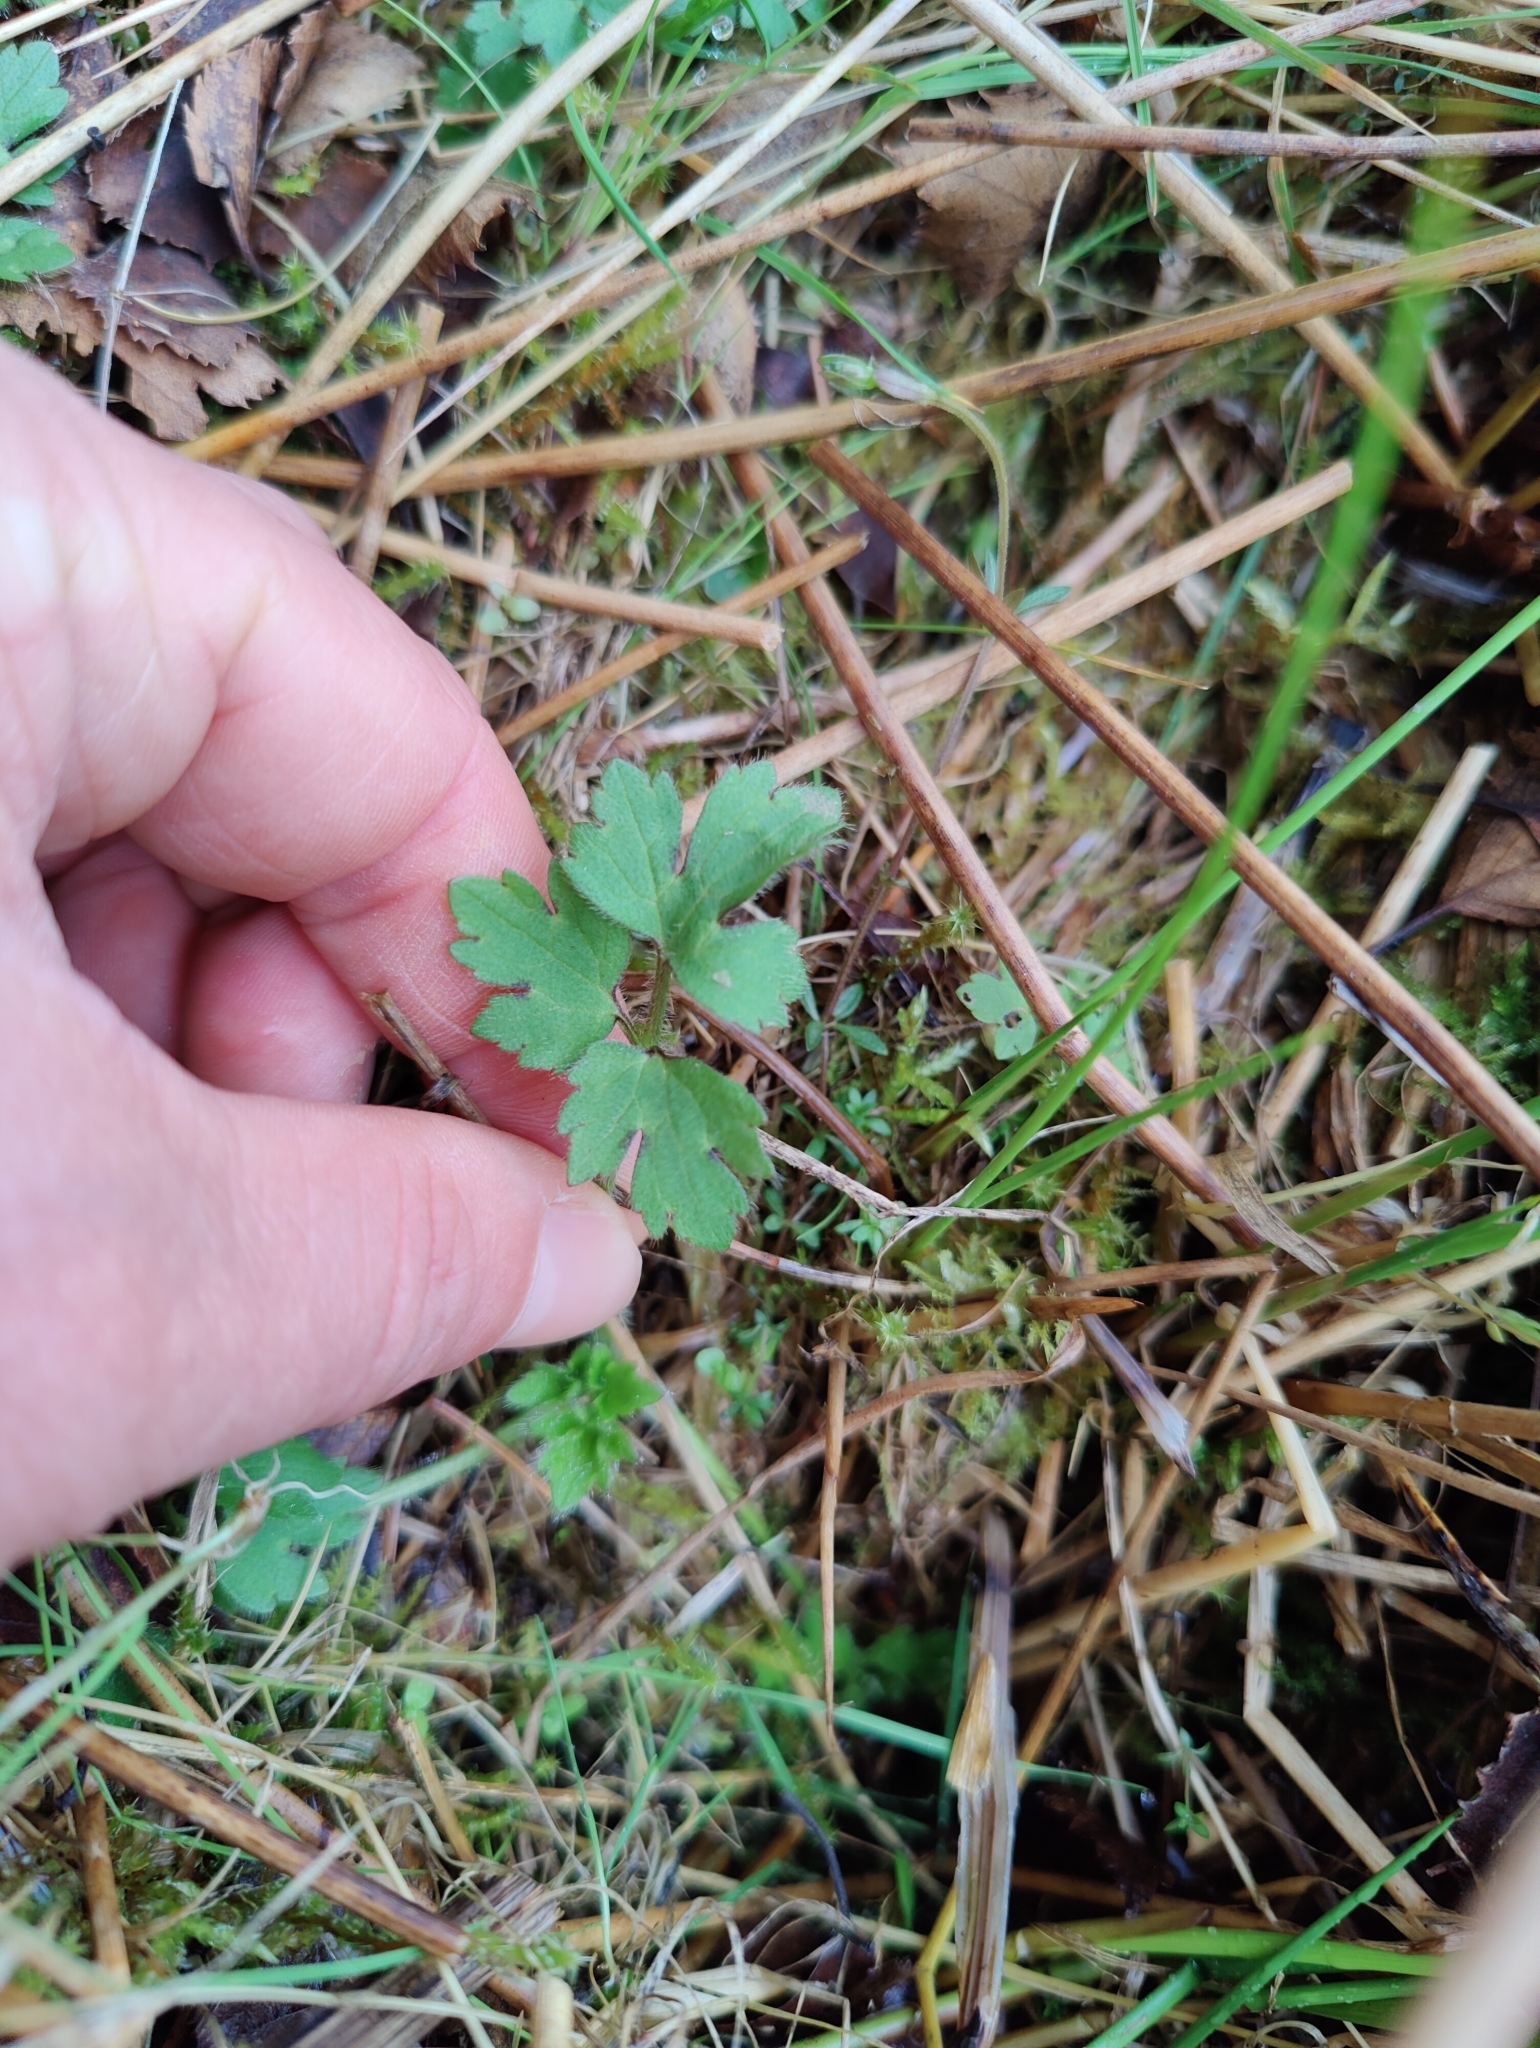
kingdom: Plantae
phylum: Tracheophyta
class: Magnoliopsida
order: Ranunculales
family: Ranunculaceae
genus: Ranunculus
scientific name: Ranunculus repens
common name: Creeping buttercup
